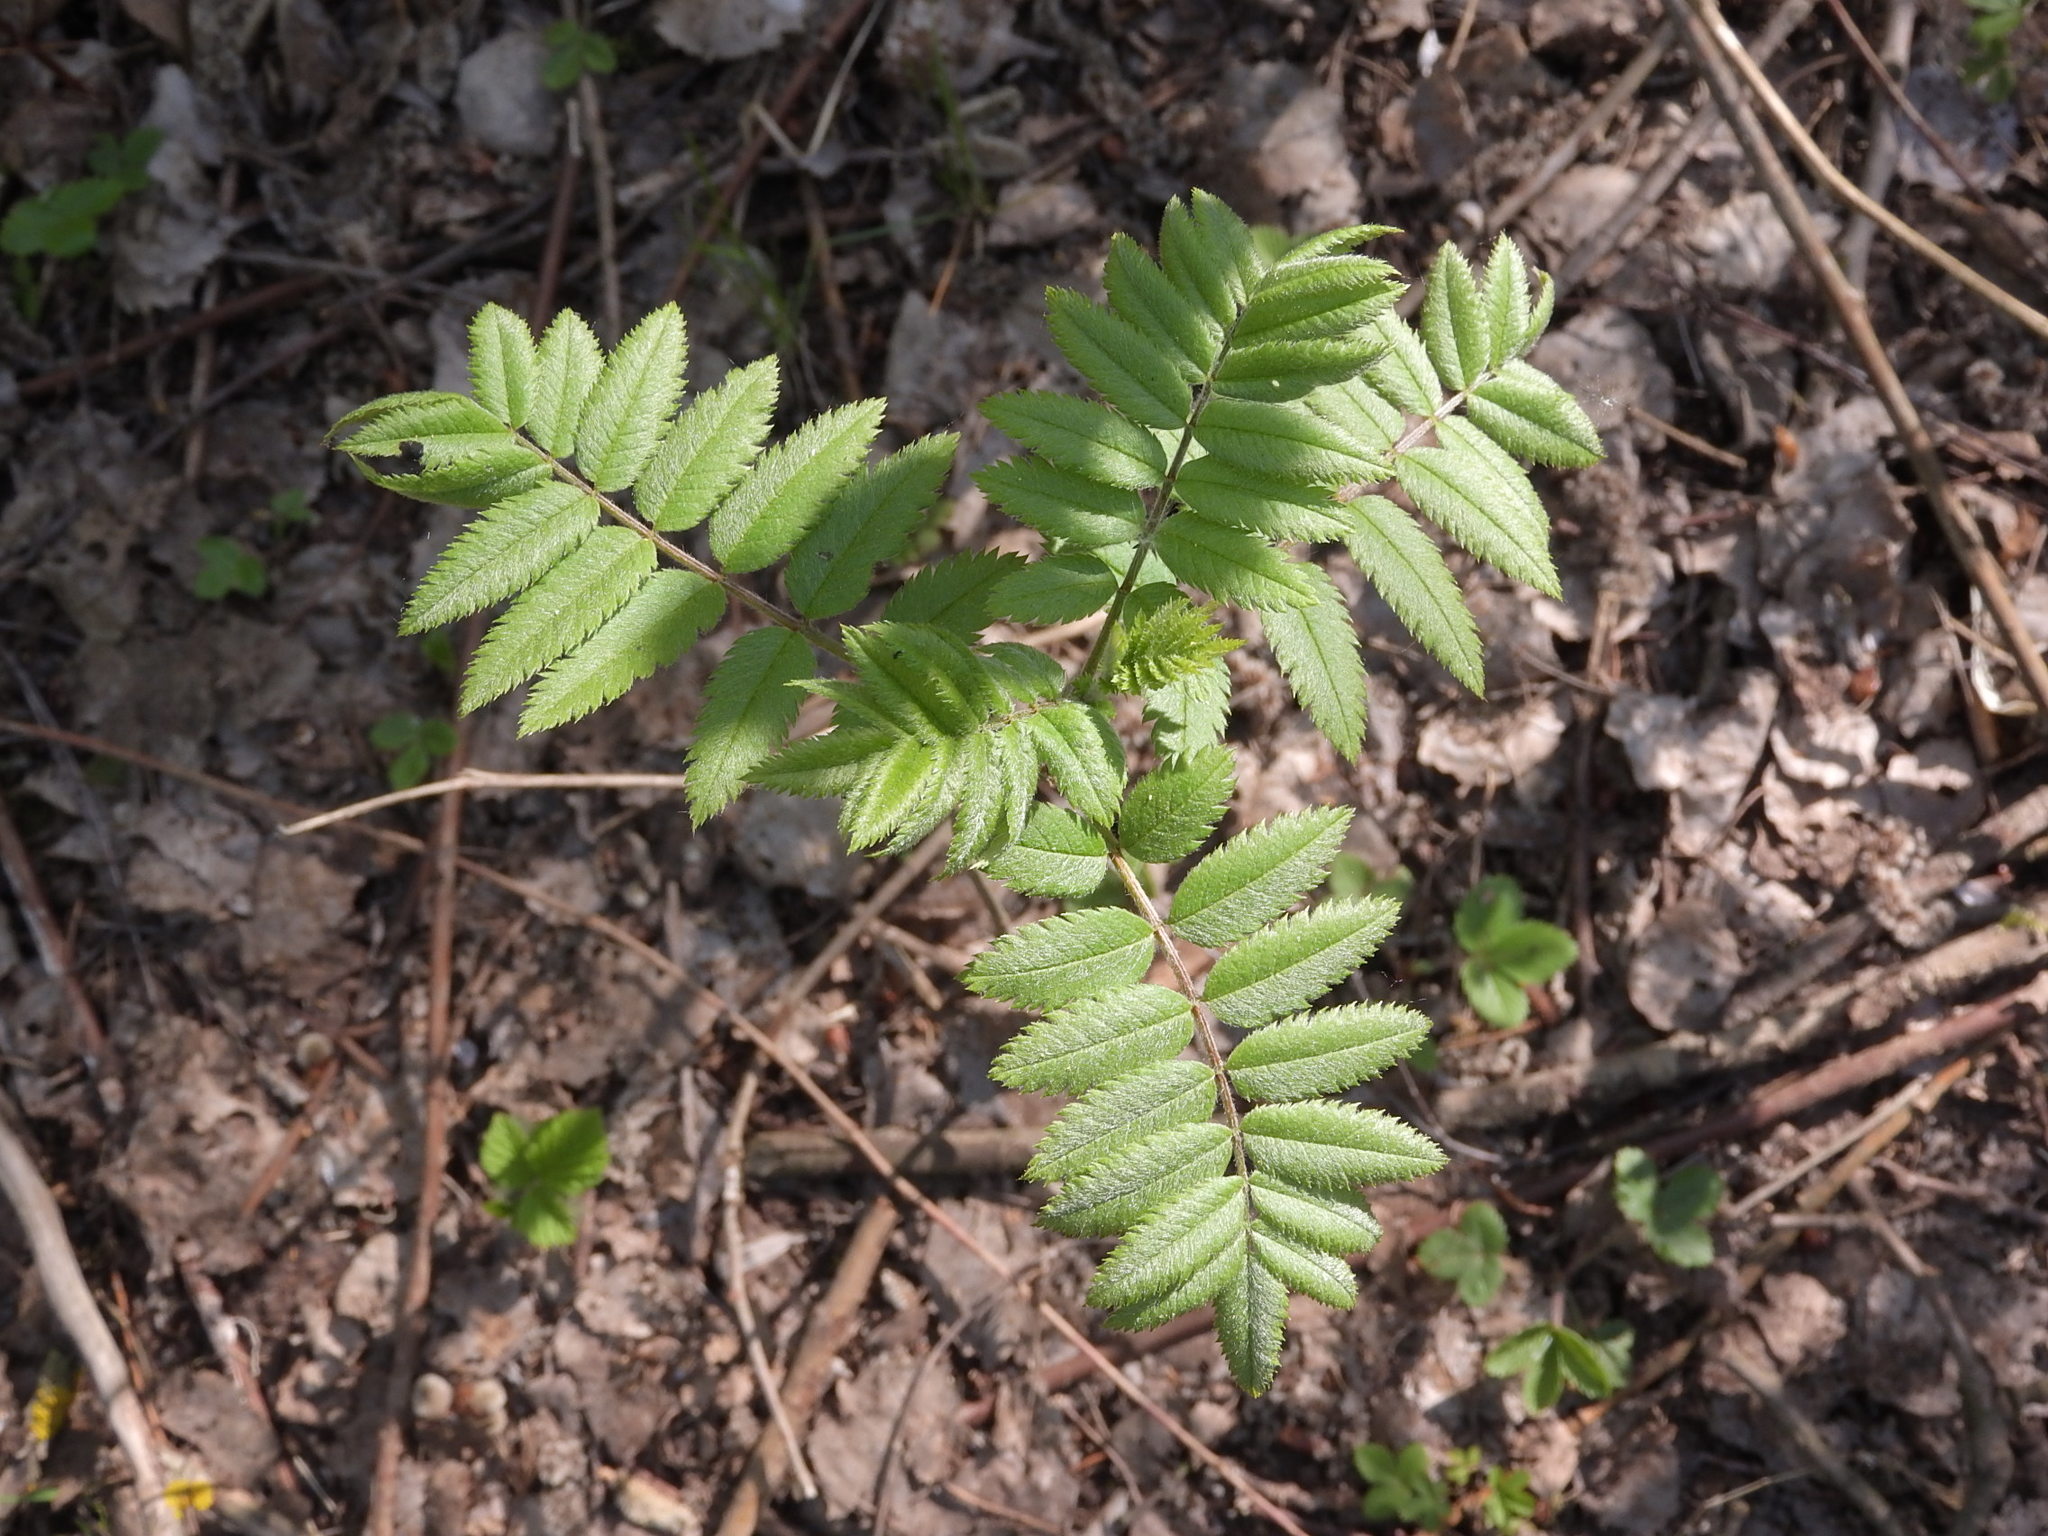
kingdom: Plantae
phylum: Tracheophyta
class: Magnoliopsida
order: Rosales
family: Rosaceae
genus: Sorbus
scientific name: Sorbus aucuparia
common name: Rowan
